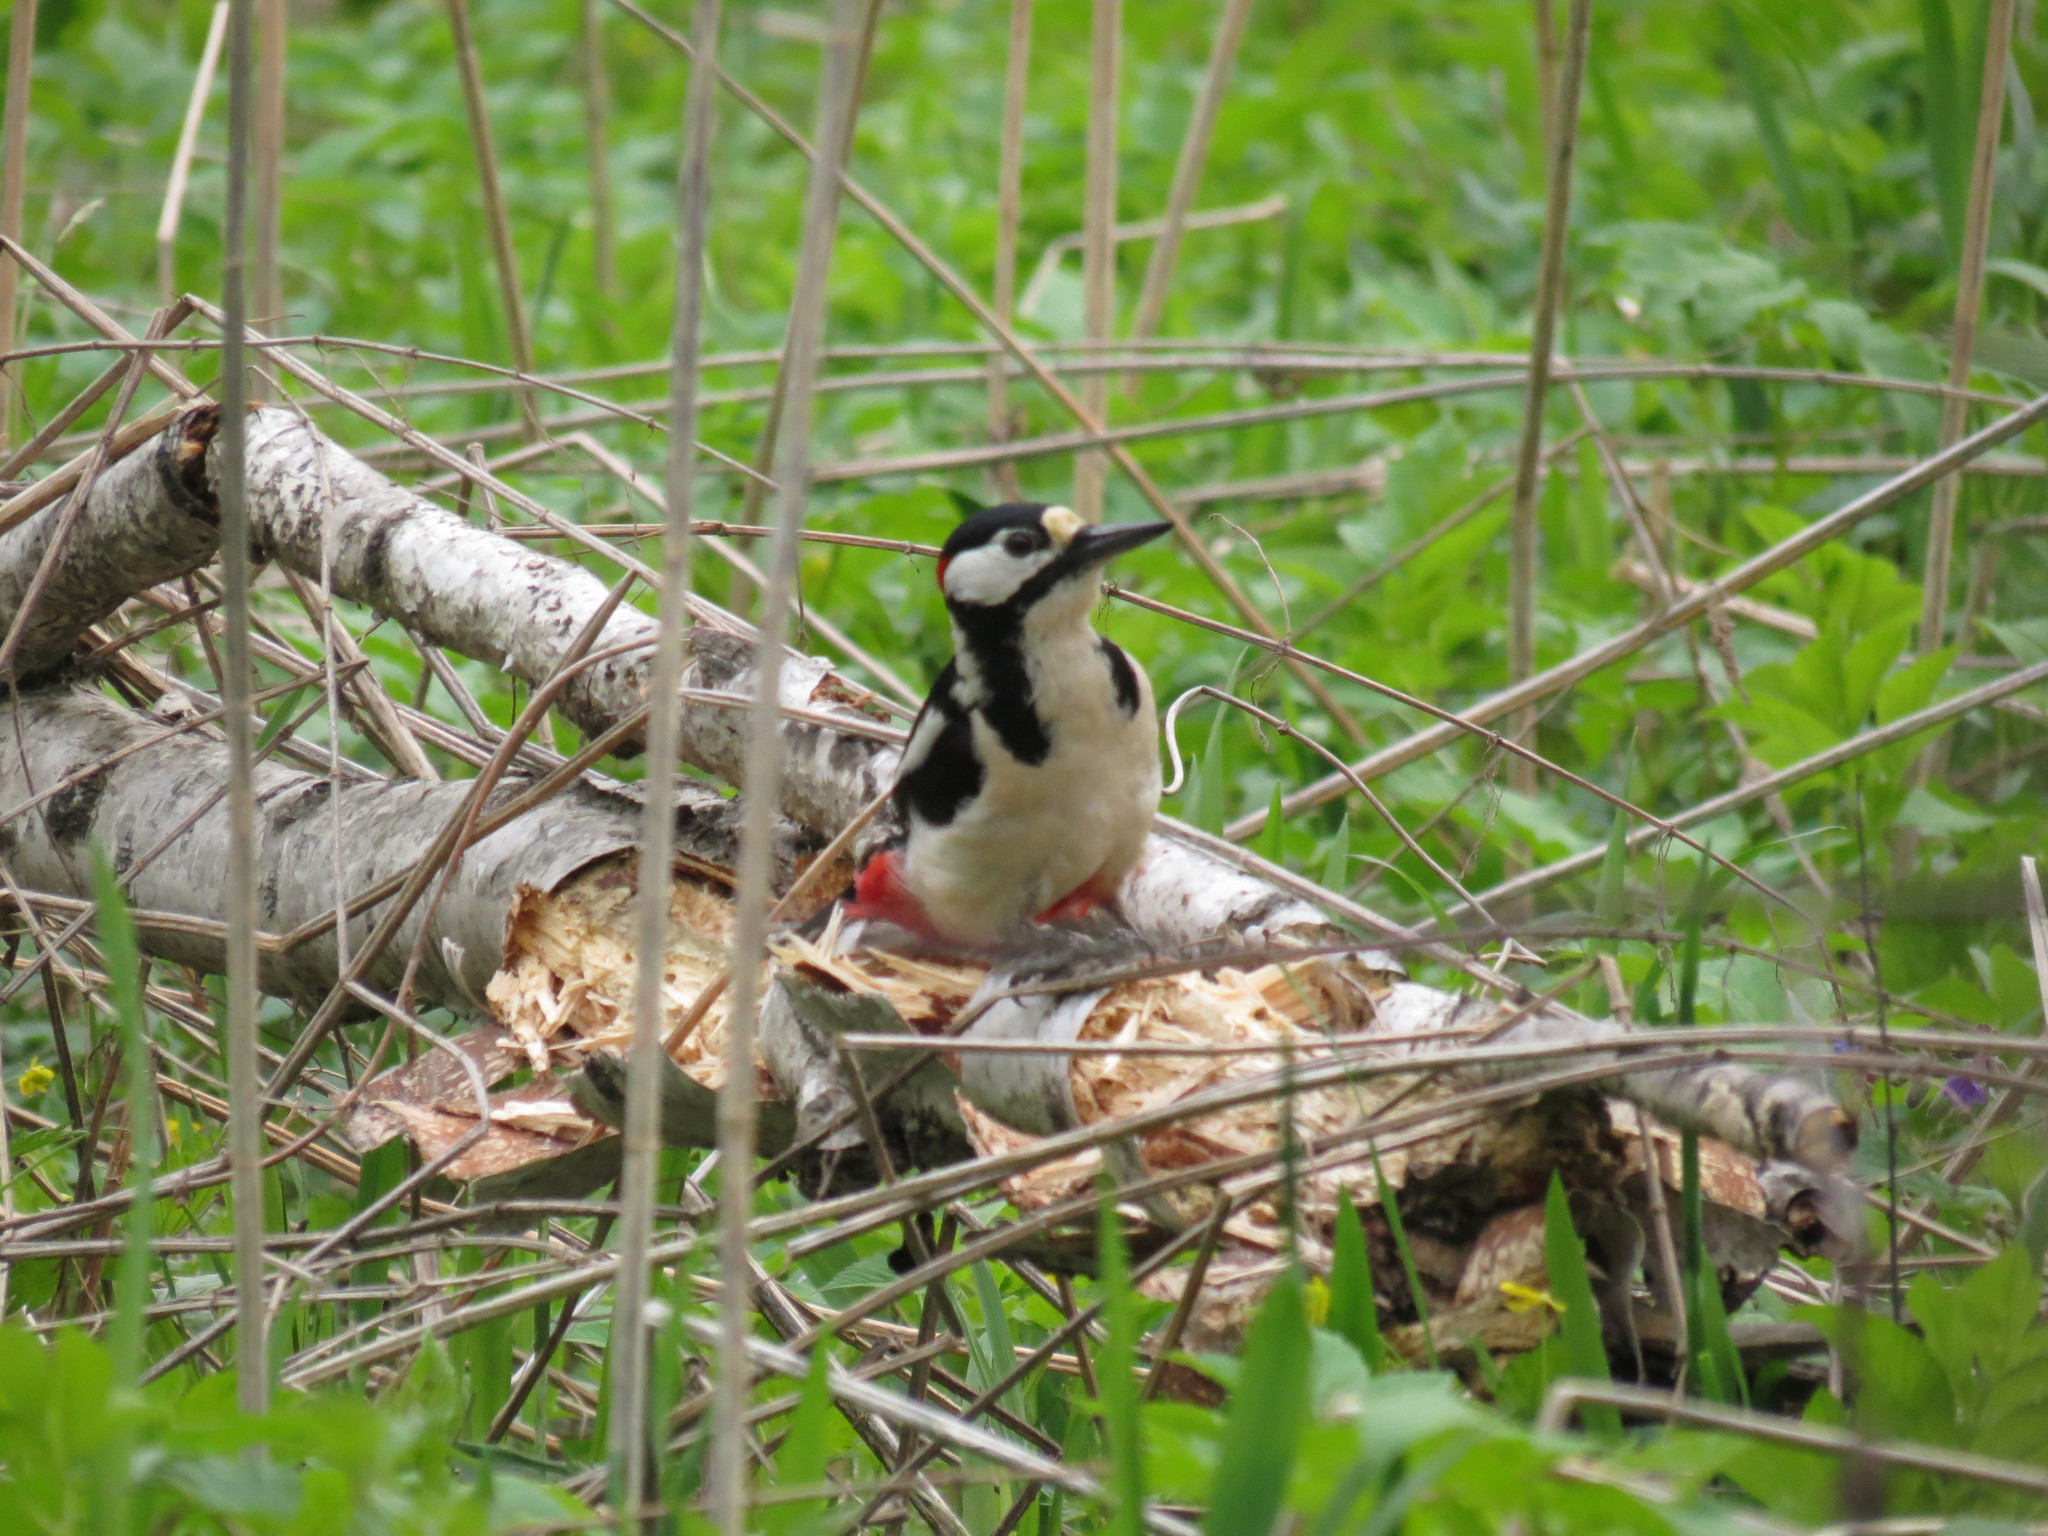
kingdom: Animalia
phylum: Chordata
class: Aves
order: Piciformes
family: Picidae
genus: Dendrocopos
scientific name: Dendrocopos major
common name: Great spotted woodpecker
